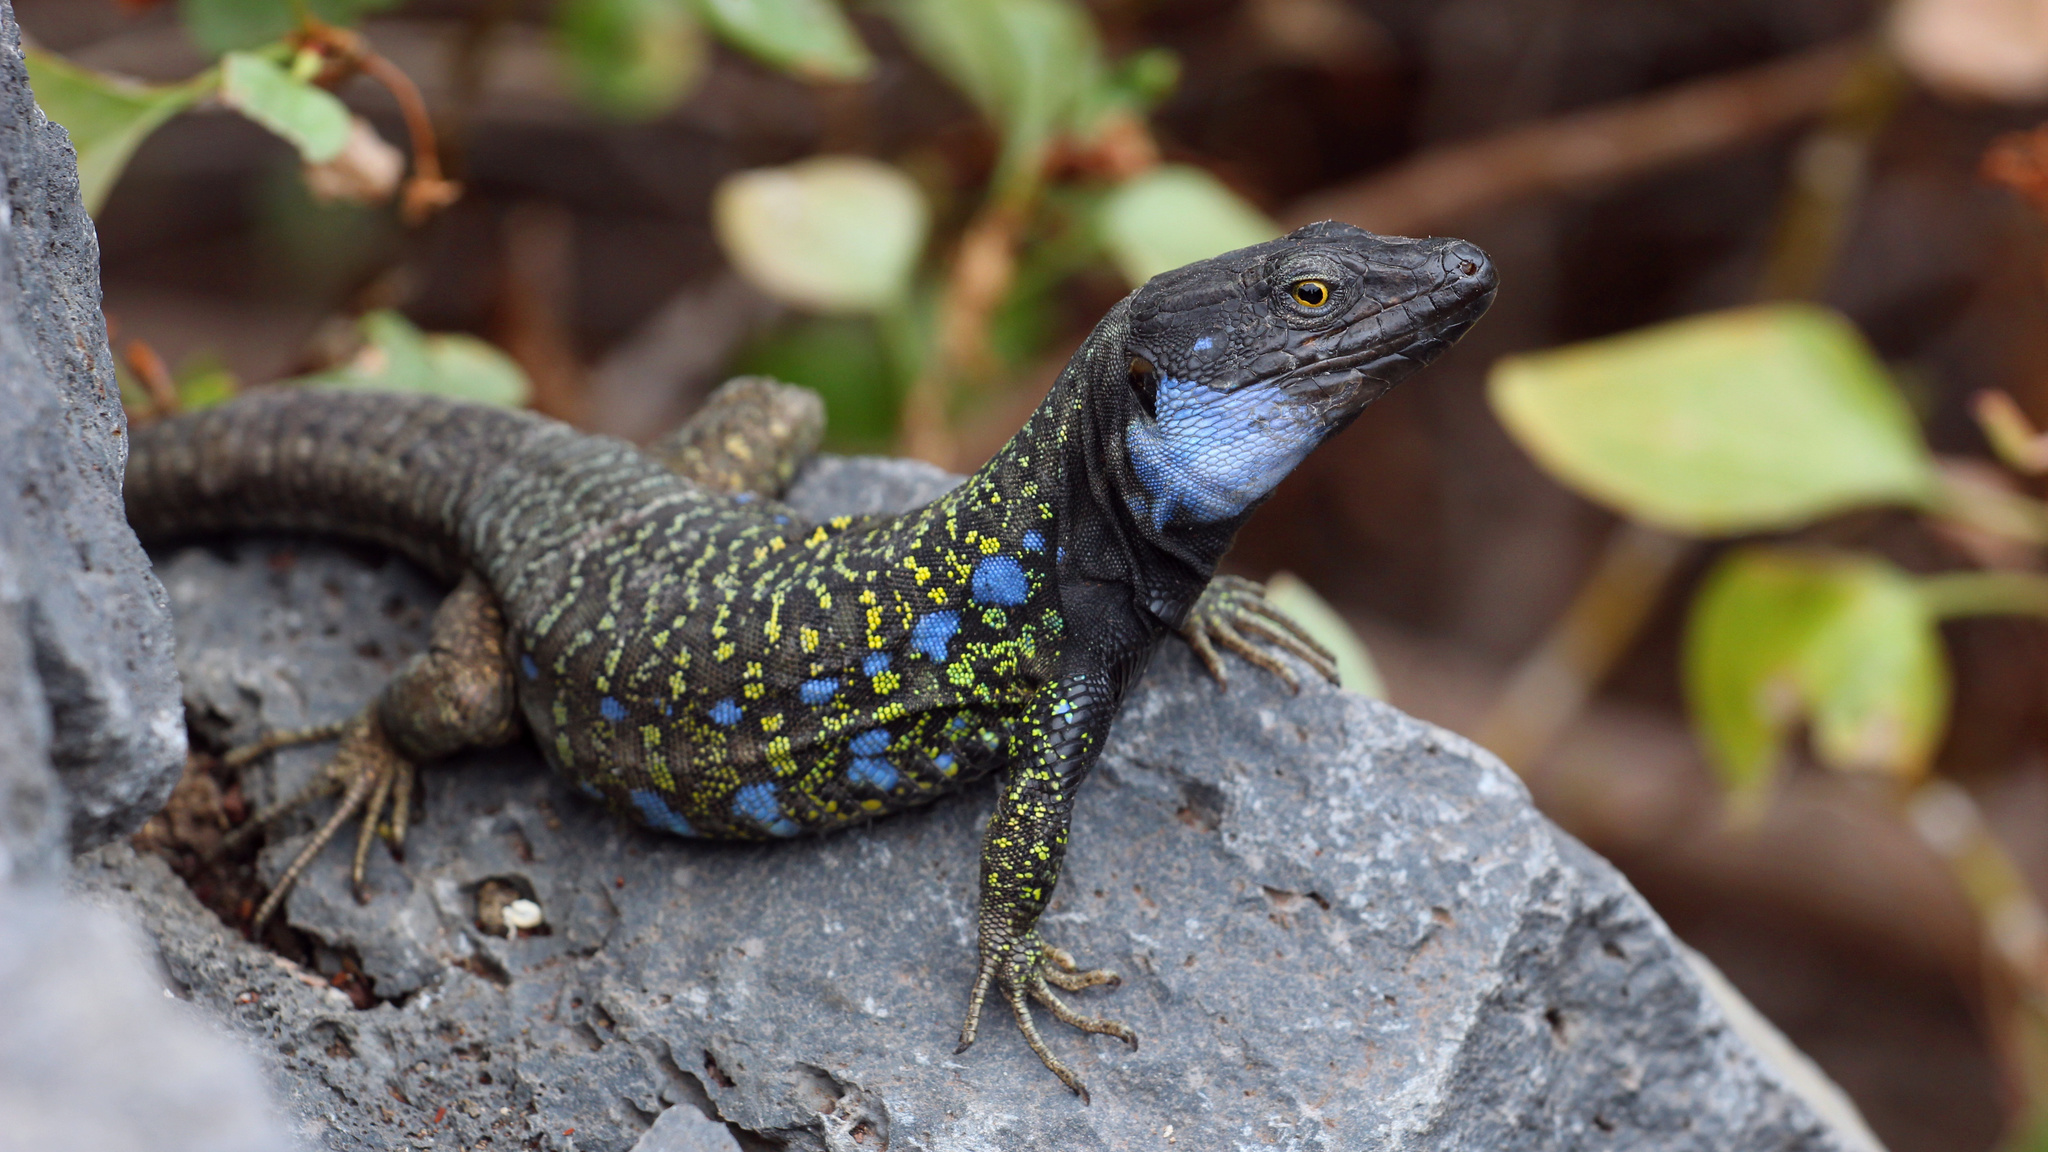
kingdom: Animalia
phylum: Chordata
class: Squamata
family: Lacertidae
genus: Gallotia
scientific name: Gallotia galloti
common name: Gallot's lizard
